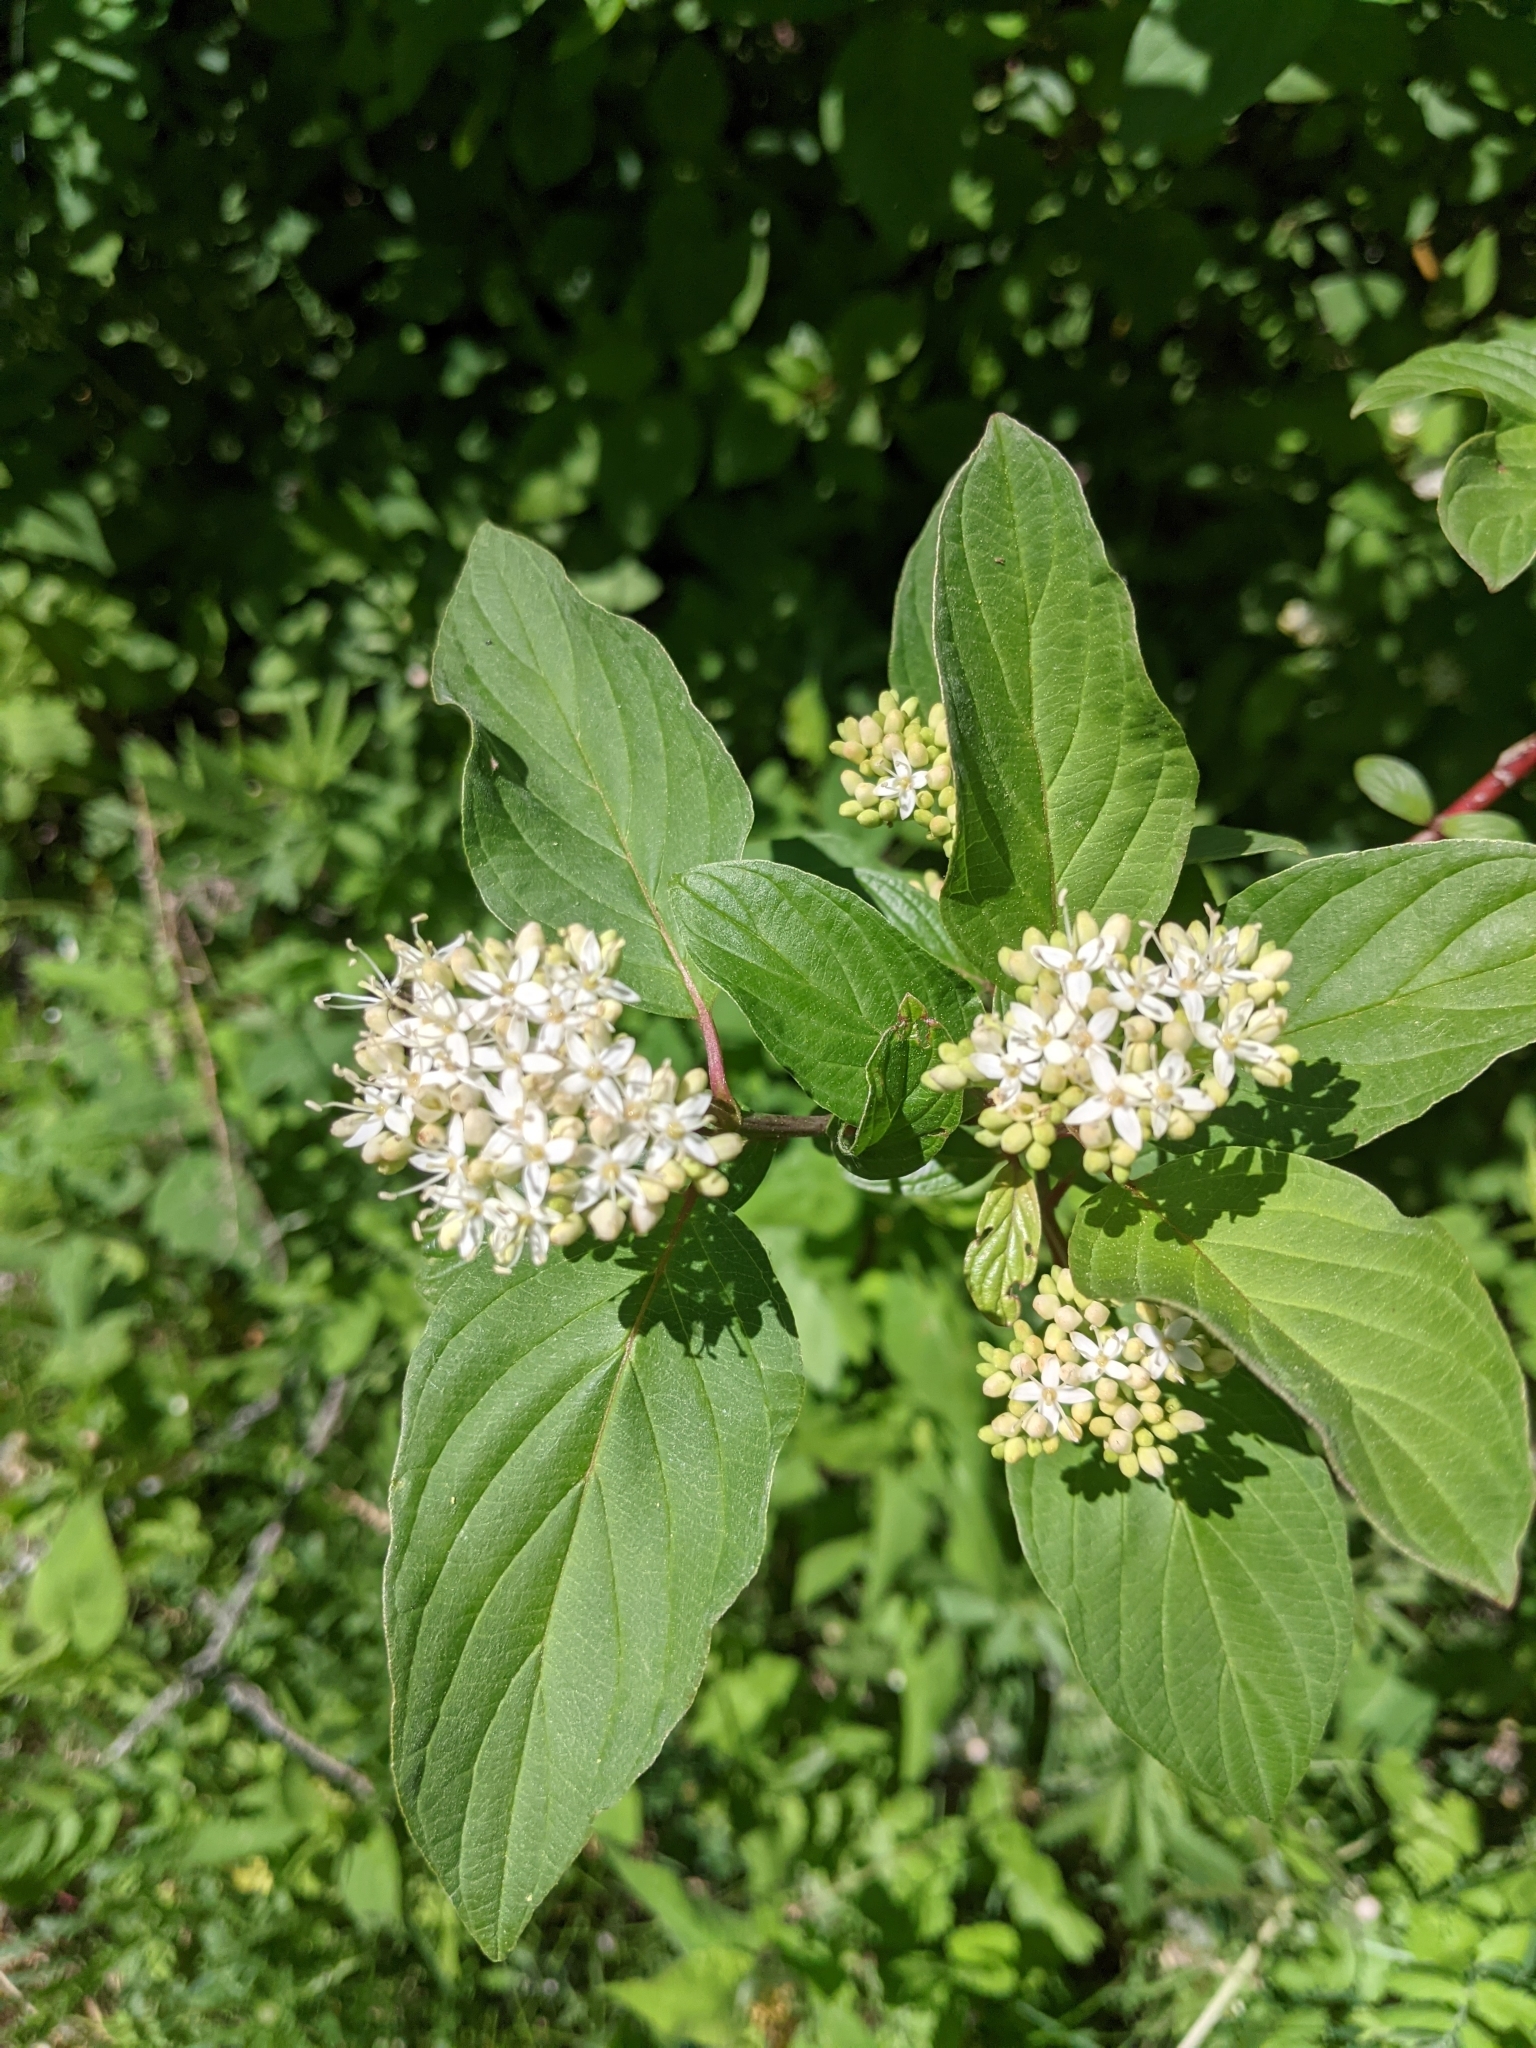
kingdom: Plantae
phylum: Tracheophyta
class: Magnoliopsida
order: Cornales
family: Cornaceae
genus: Cornus
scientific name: Cornus sericea
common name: Red-osier dogwood
